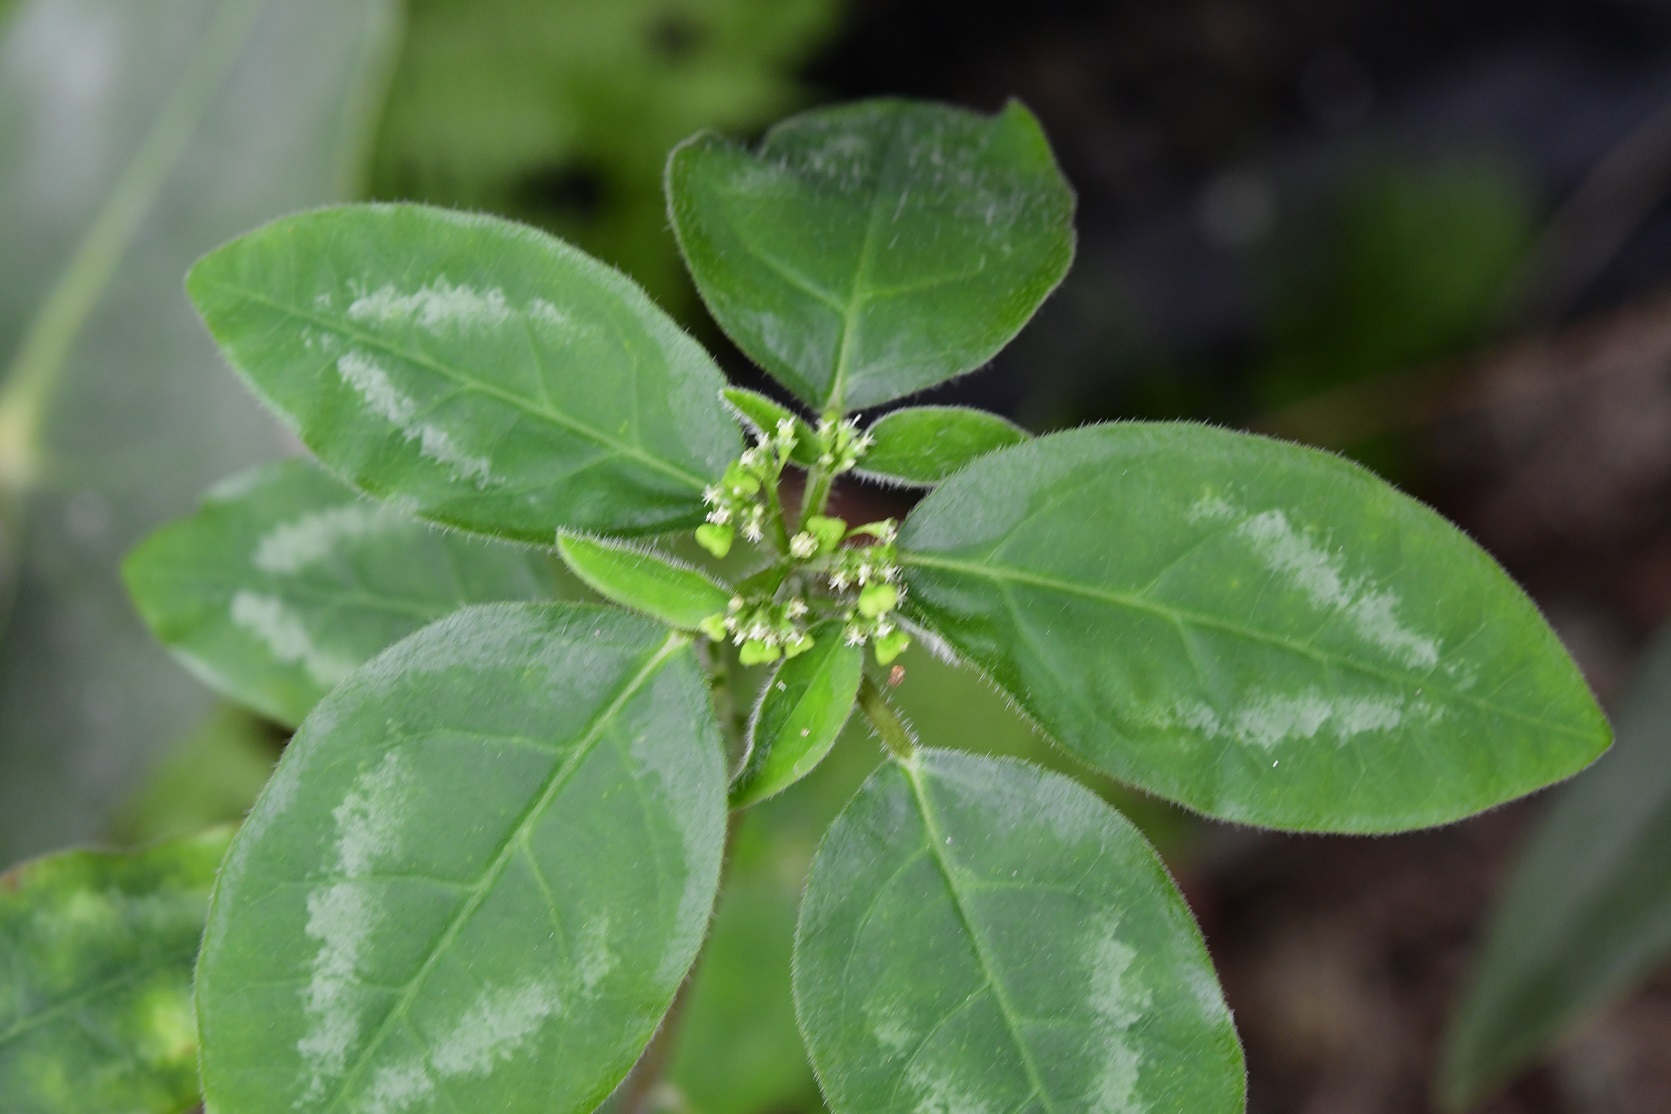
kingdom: Plantae
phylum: Tracheophyta
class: Magnoliopsida
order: Malpighiales
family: Euphorbiaceae
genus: Euphorbia
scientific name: Euphorbia graminea
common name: Grassleaf spurge
